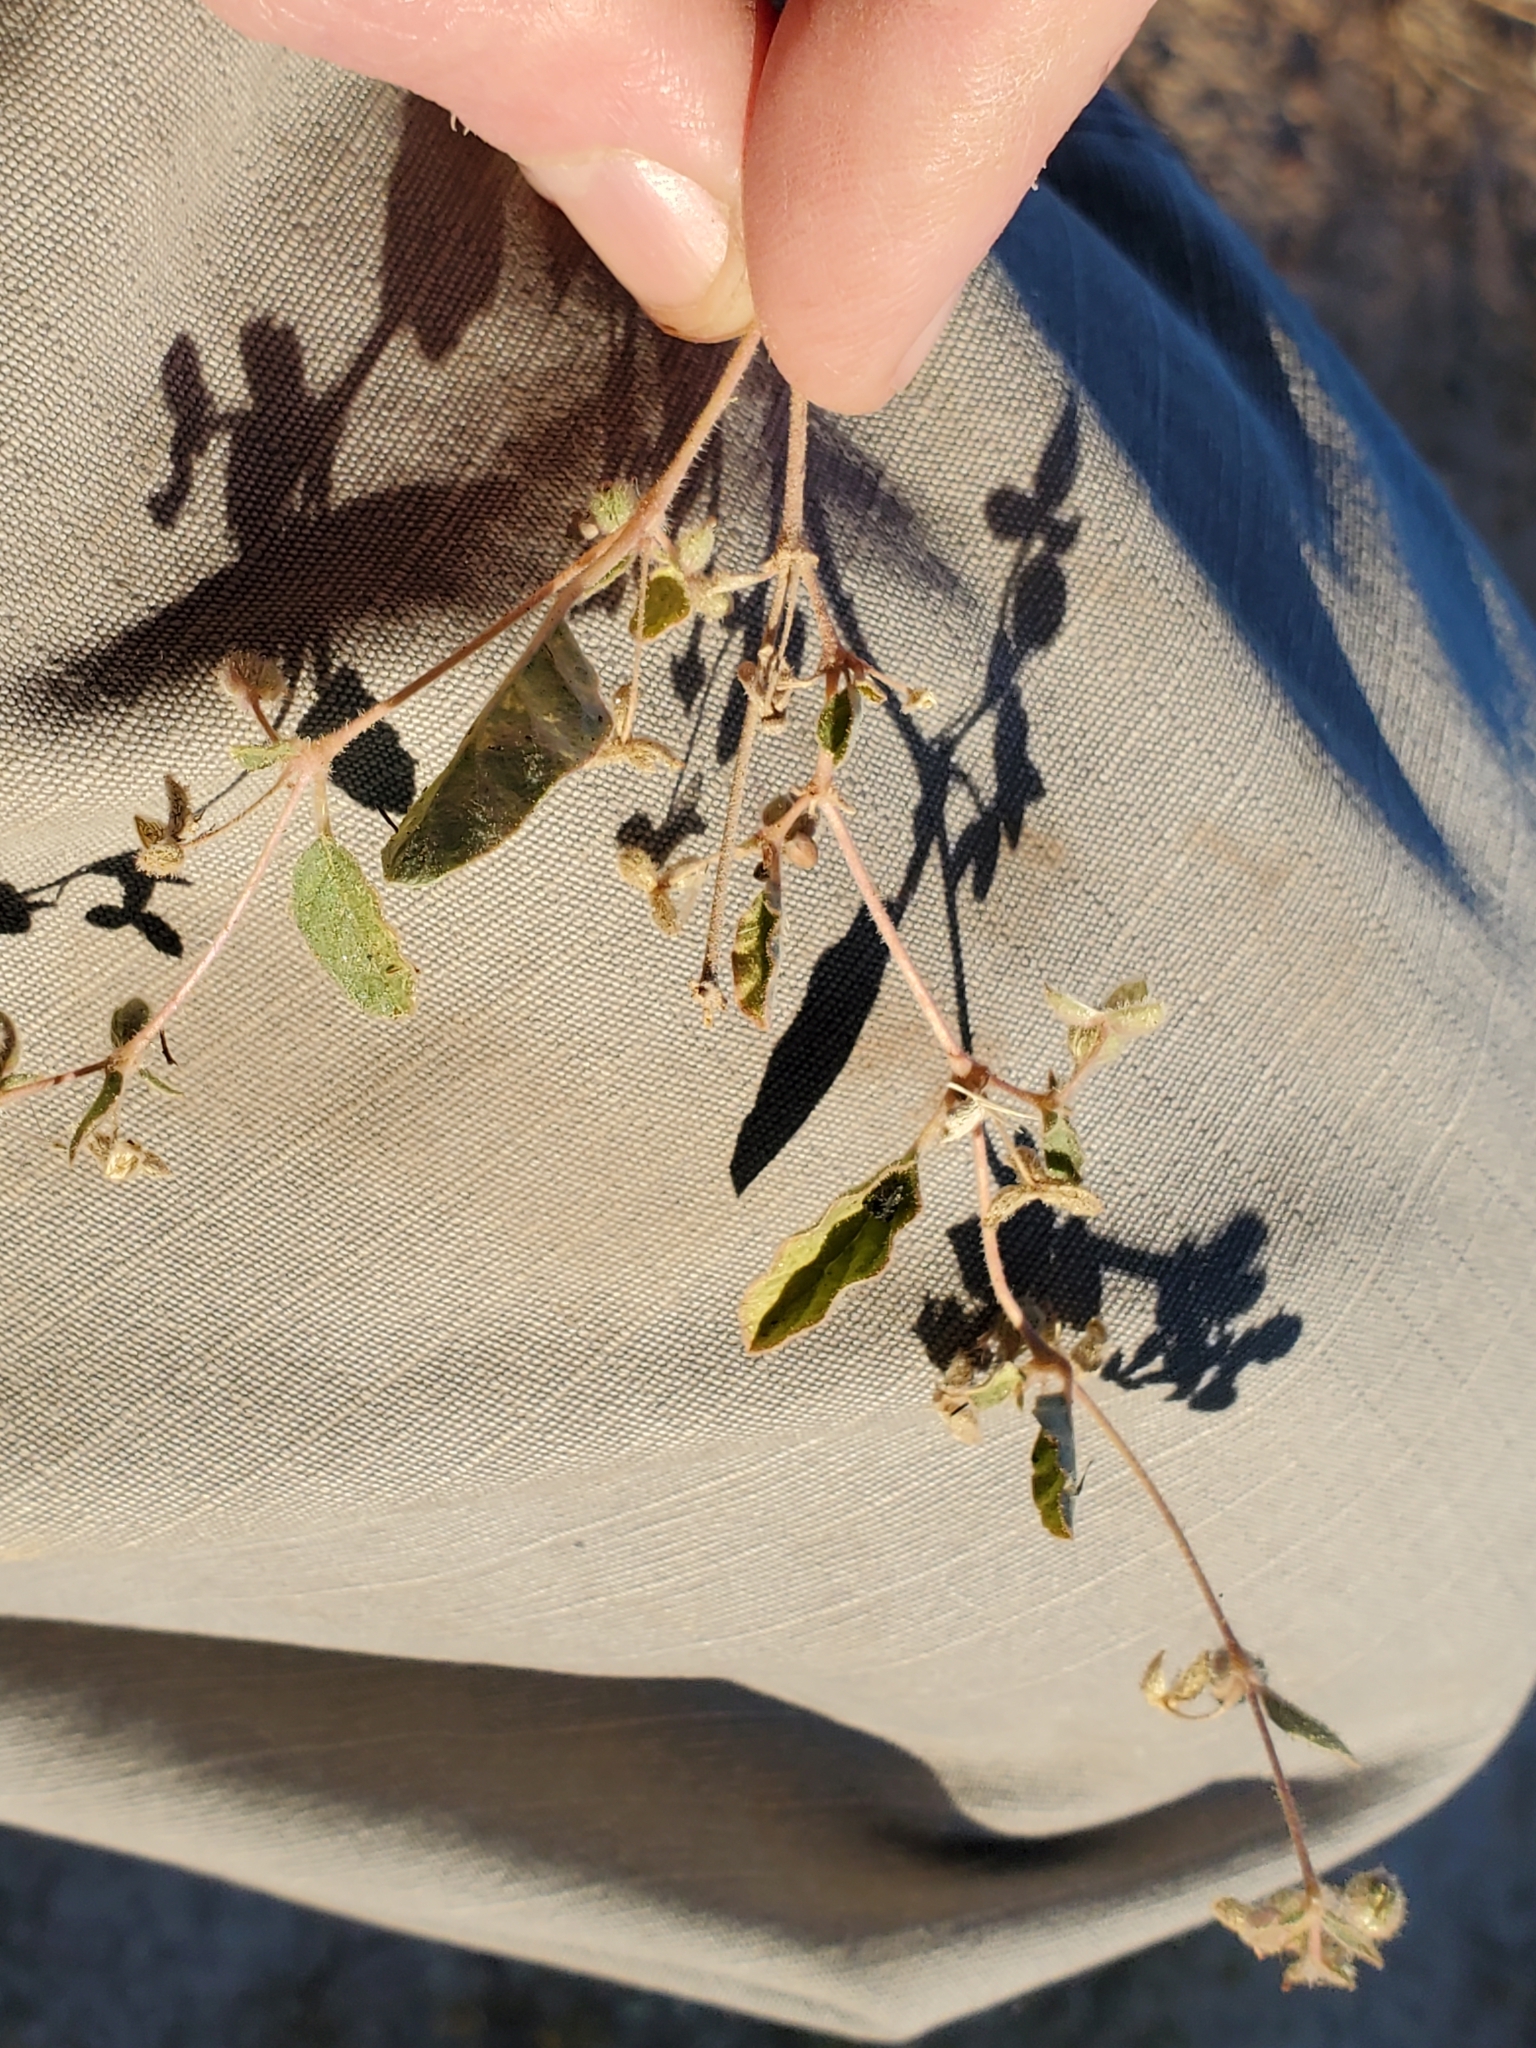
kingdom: Plantae
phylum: Tracheophyta
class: Magnoliopsida
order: Caryophyllales
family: Nyctaginaceae
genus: Allionia
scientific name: Allionia incarnata
